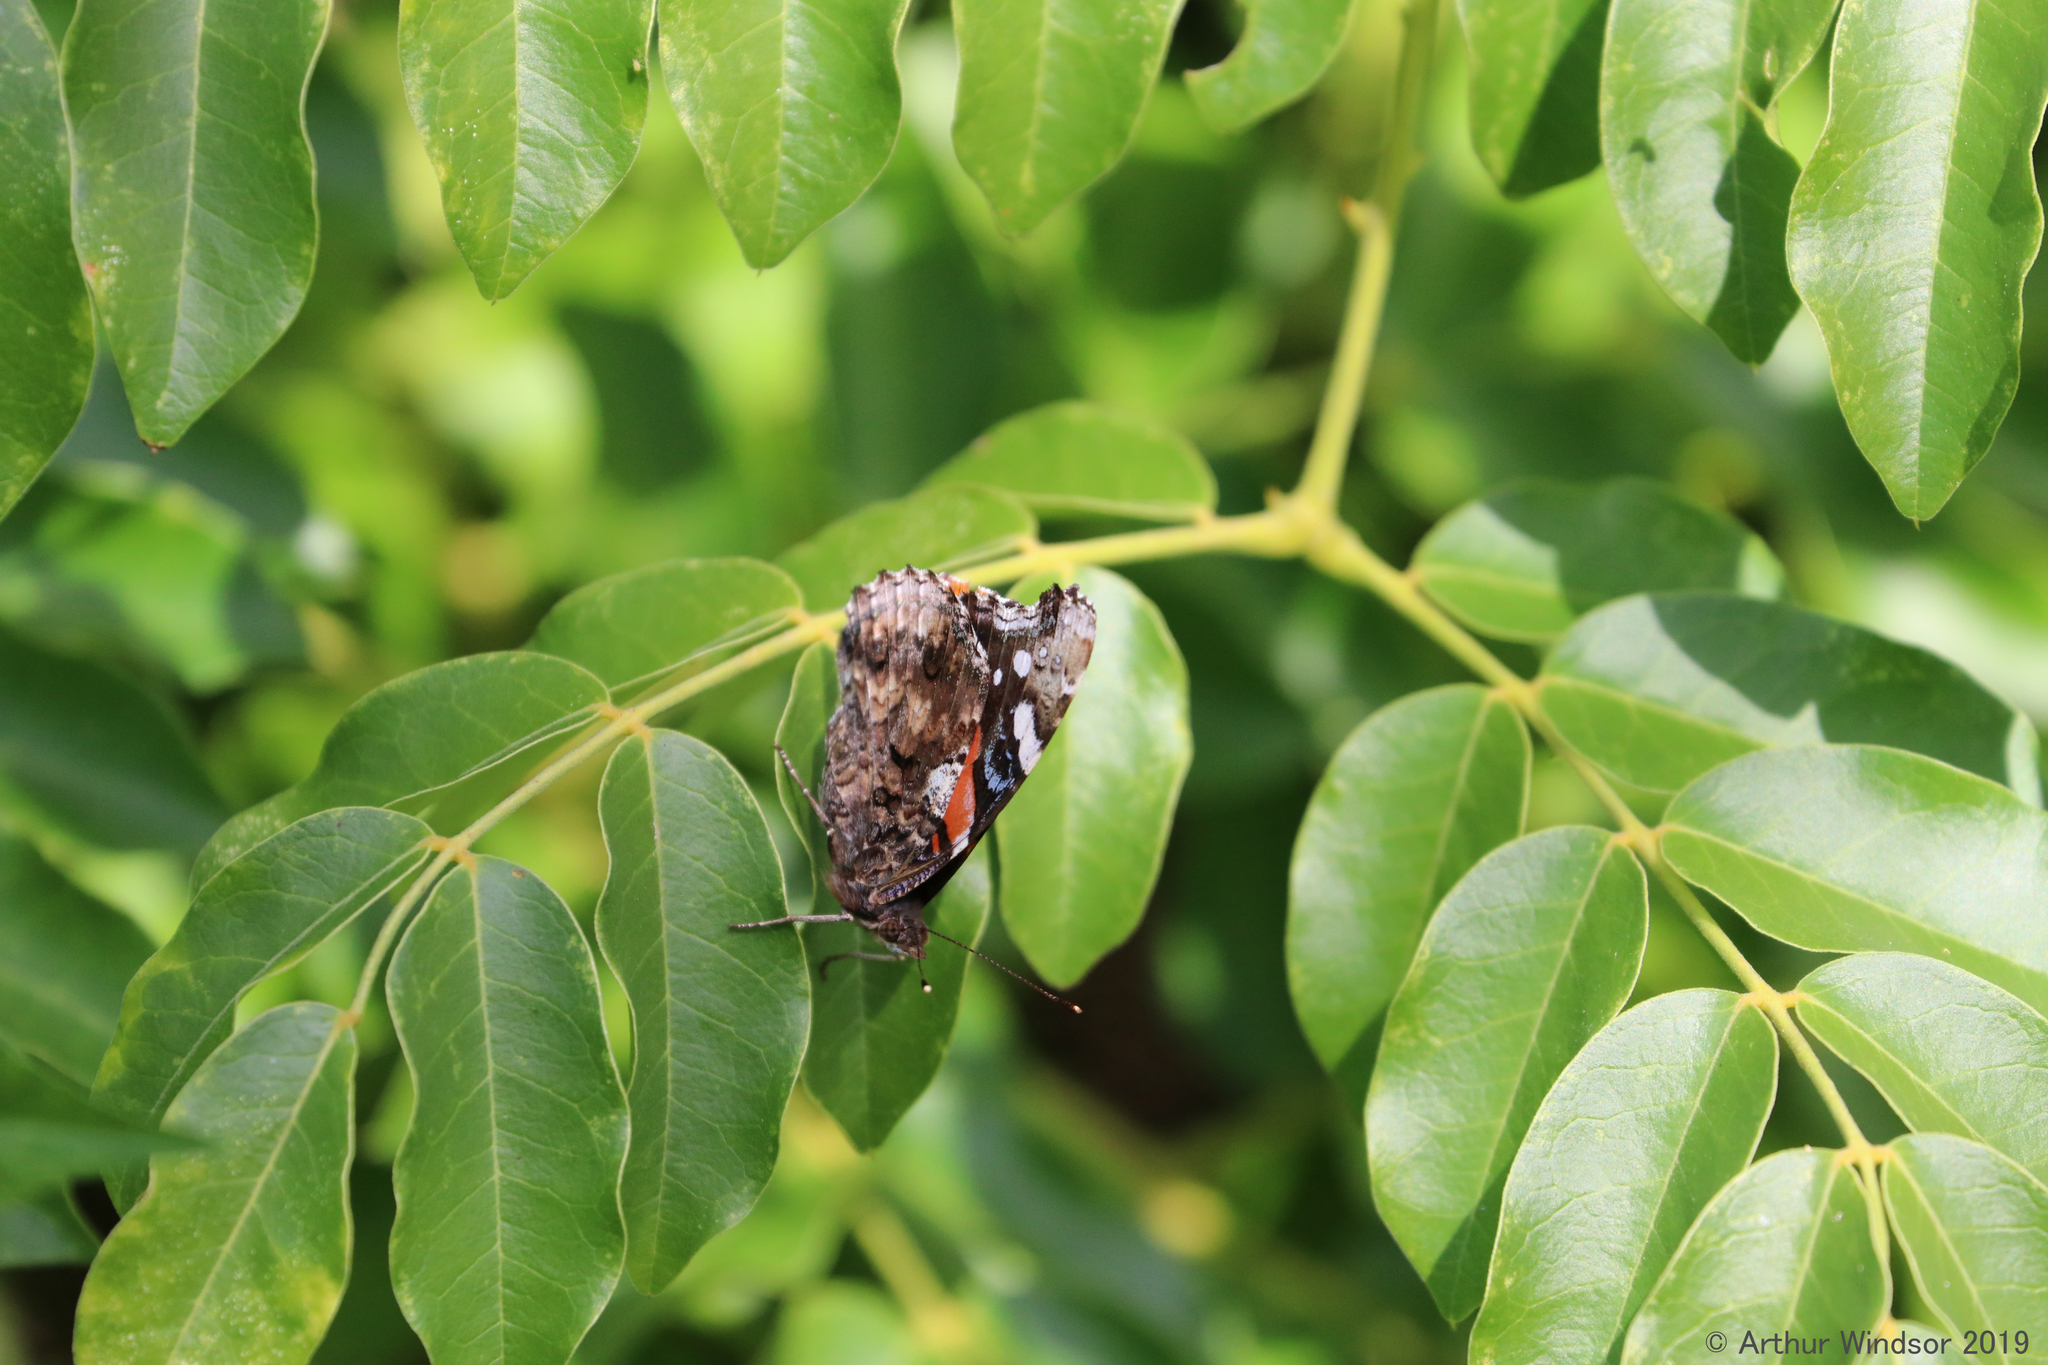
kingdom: Animalia
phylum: Arthropoda
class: Insecta
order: Lepidoptera
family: Nymphalidae
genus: Vanessa
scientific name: Vanessa atalanta
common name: Red admiral
